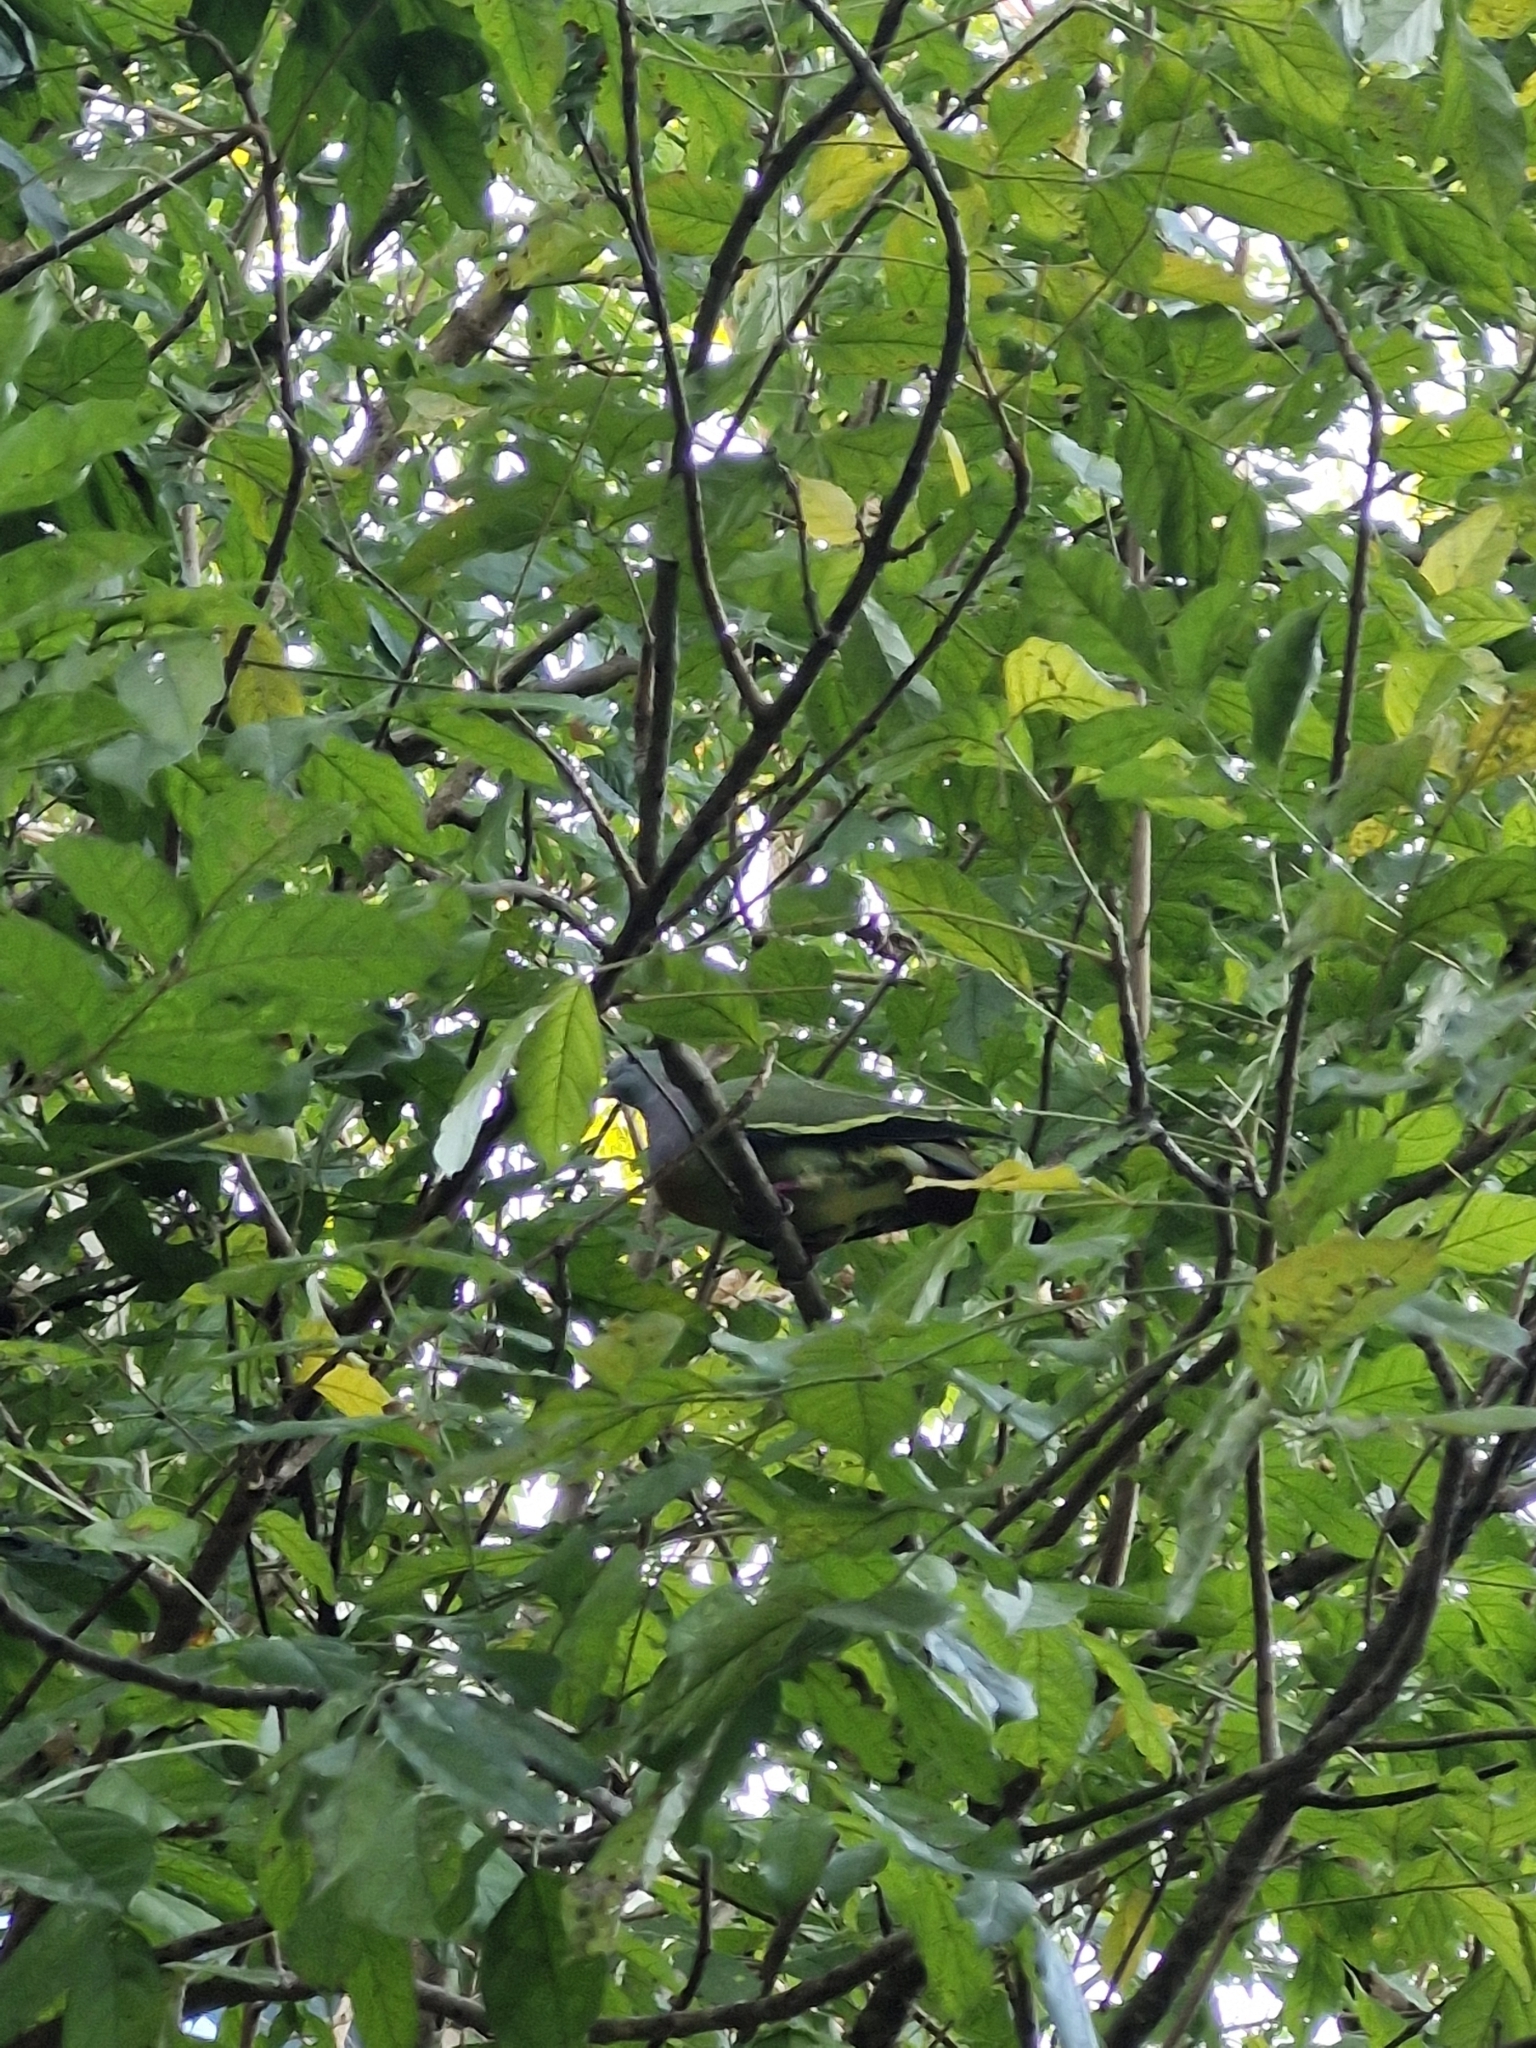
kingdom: Animalia
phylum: Chordata
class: Aves
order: Columbiformes
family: Columbidae
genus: Treron
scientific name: Treron vernans
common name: Pink-necked green pigeon
